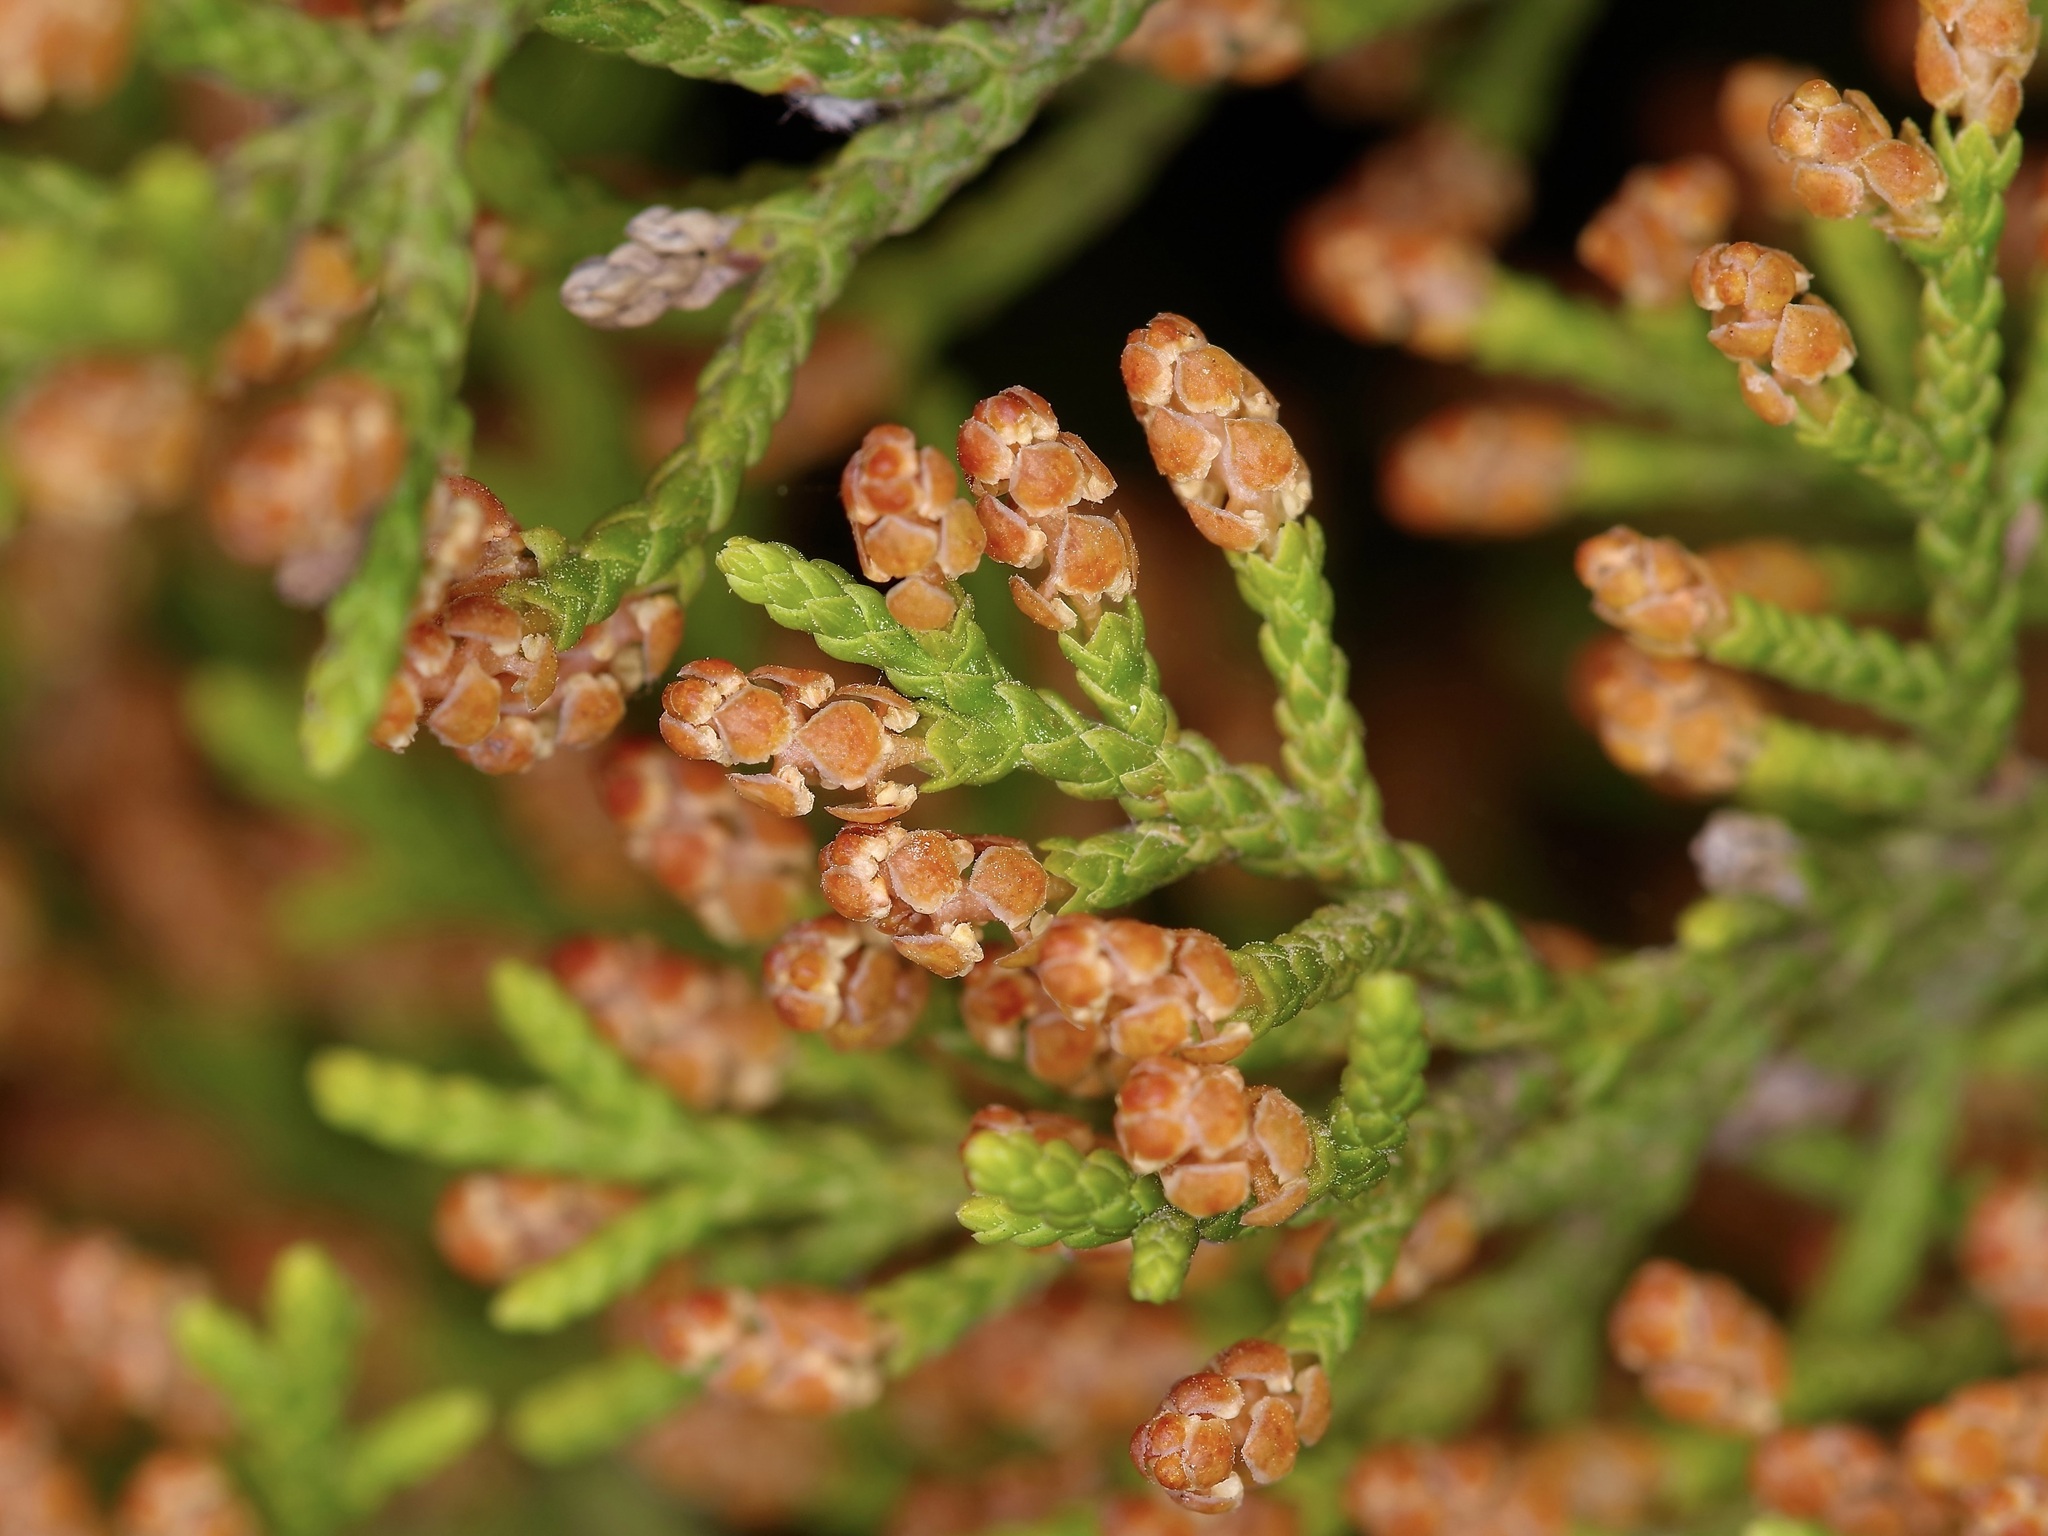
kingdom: Plantae
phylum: Tracheophyta
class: Pinopsida
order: Pinales
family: Cupressaceae
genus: Juniperus
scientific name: Juniperus ashei
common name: Mexican juniper
